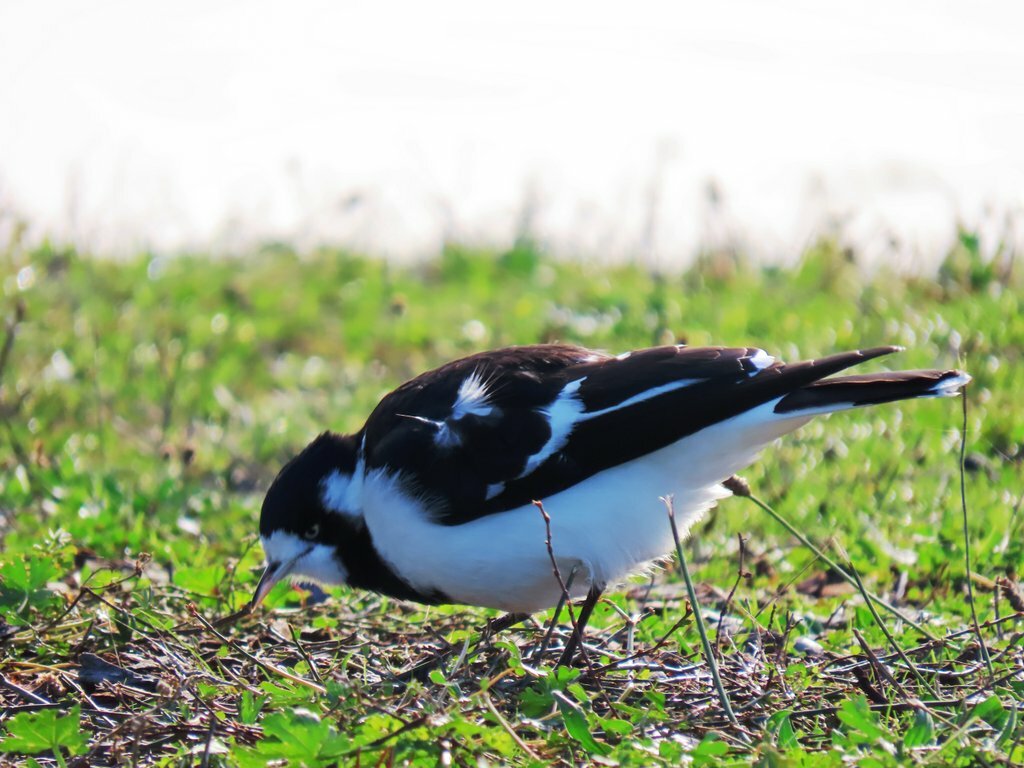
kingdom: Animalia
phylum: Chordata
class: Aves
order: Passeriformes
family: Monarchidae
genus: Grallina
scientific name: Grallina cyanoleuca
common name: Magpie-lark
